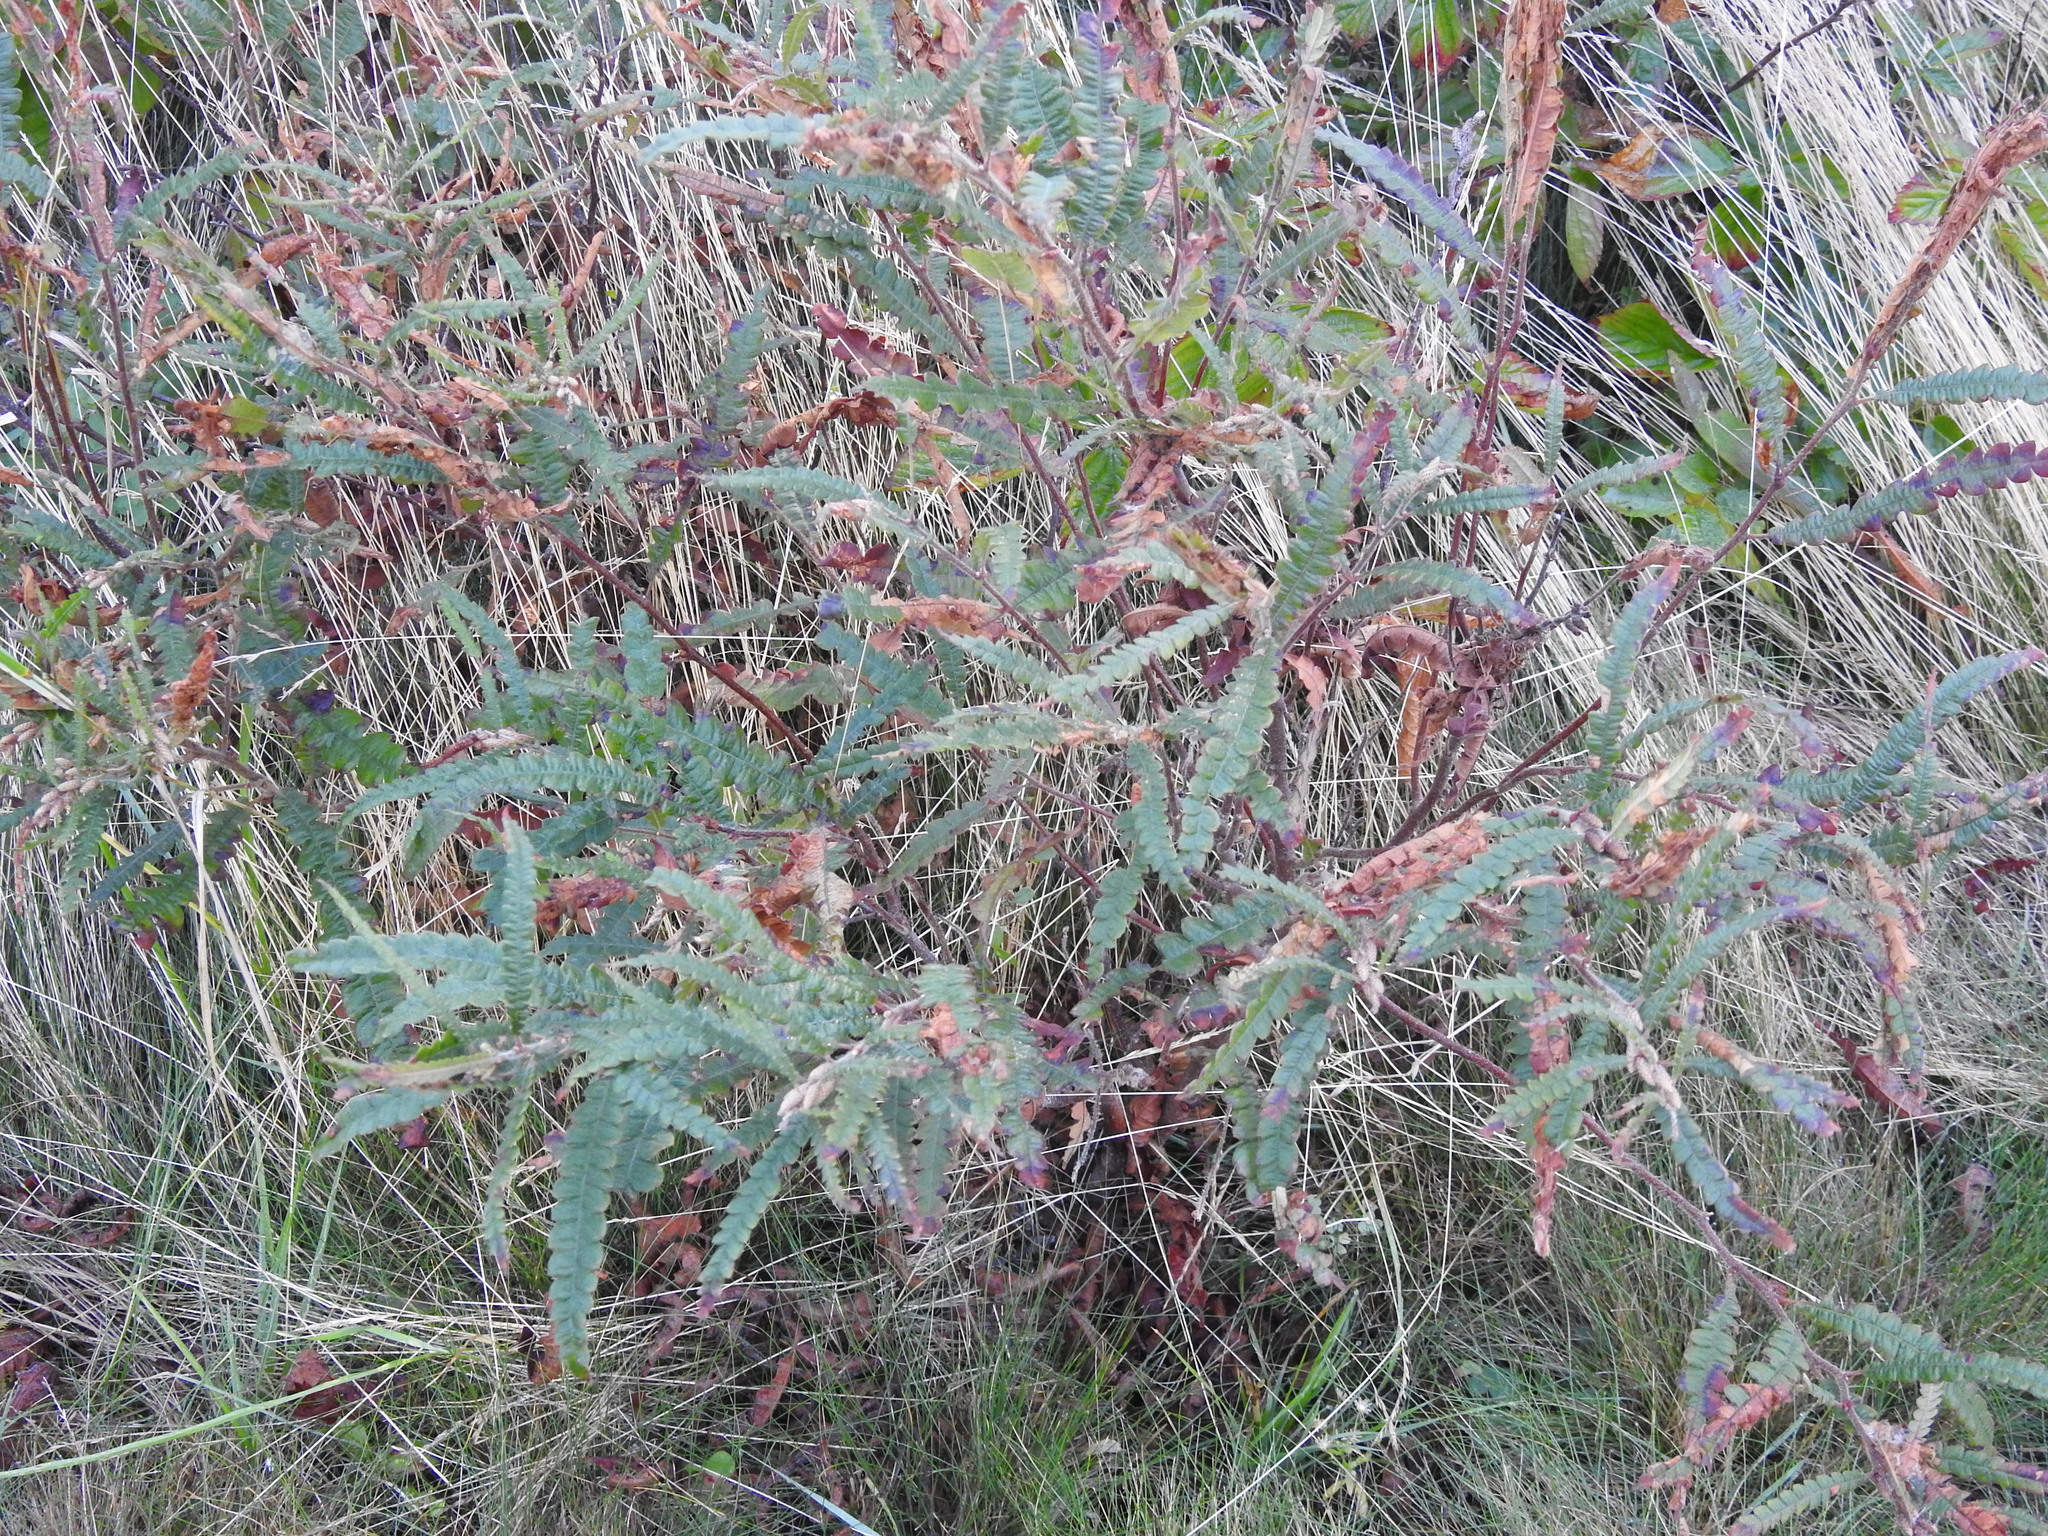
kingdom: Plantae
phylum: Tracheophyta
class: Magnoliopsida
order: Fagales
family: Myricaceae
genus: Comptonia
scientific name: Comptonia peregrina
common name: Sweet-fern
